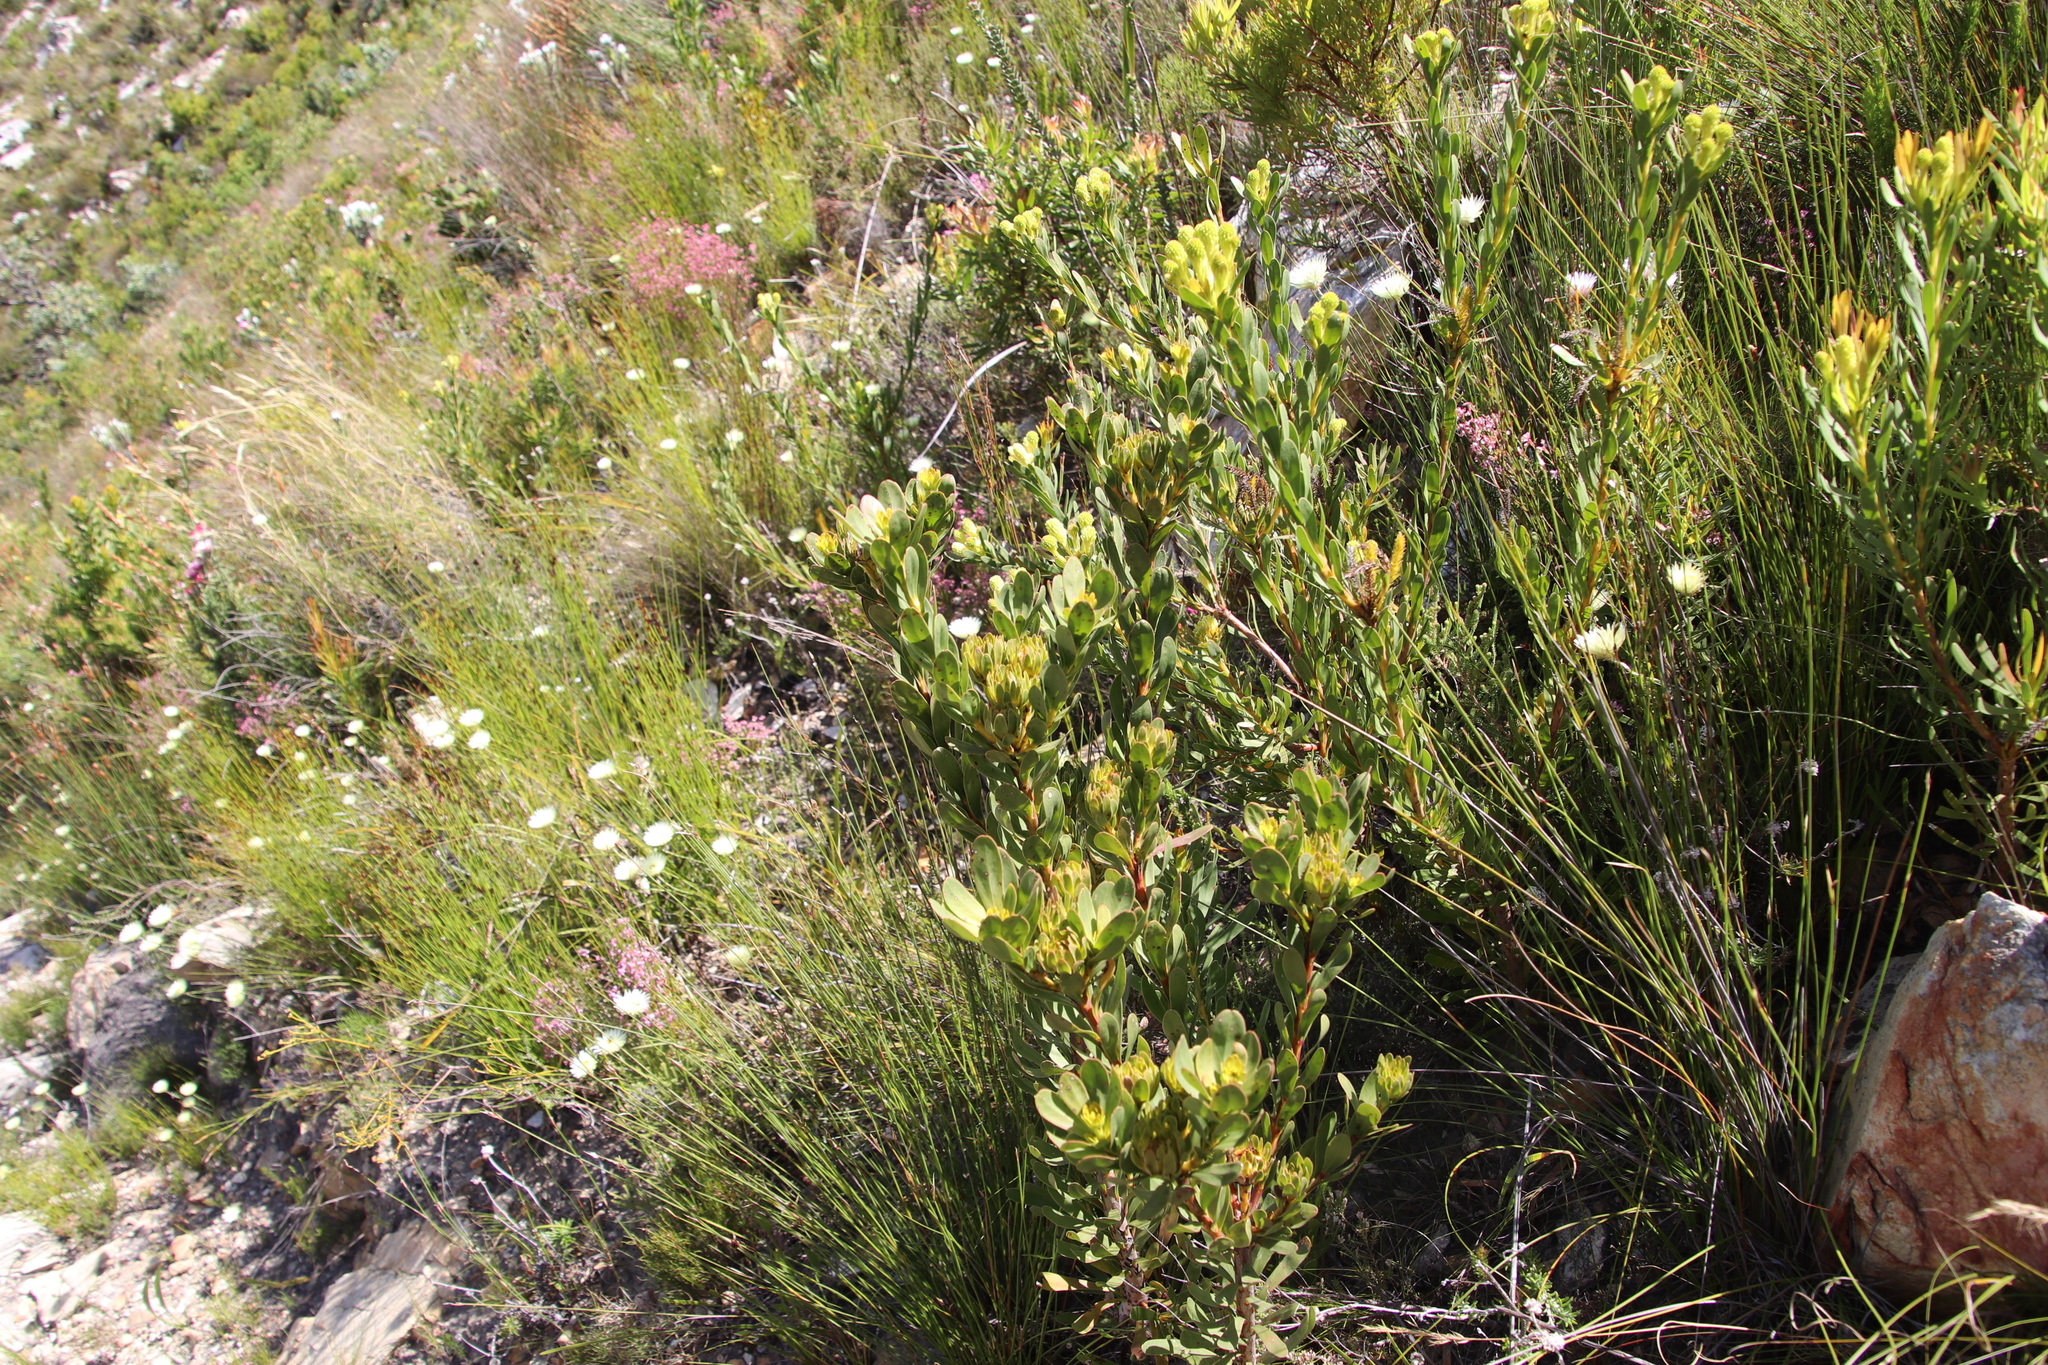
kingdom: Plantae
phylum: Tracheophyta
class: Magnoliopsida
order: Proteales
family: Proteaceae
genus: Aulax
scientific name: Aulax umbellata
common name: Broad-leaf featherbush
